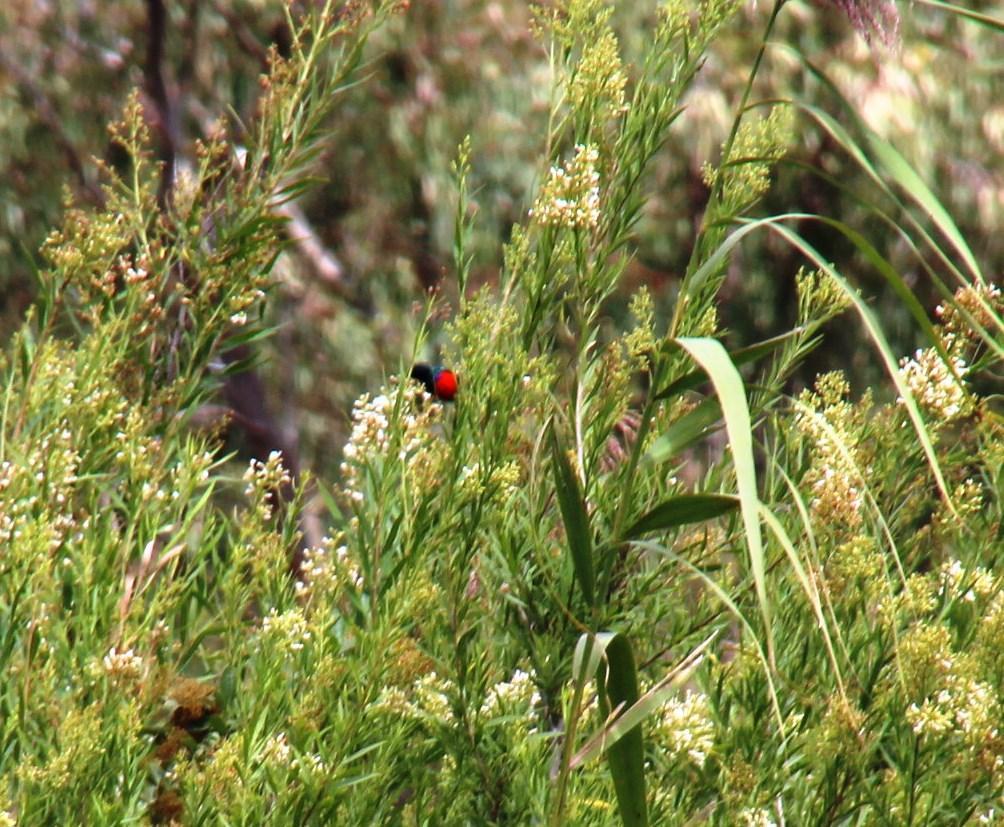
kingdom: Animalia
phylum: Chordata
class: Aves
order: Passeriformes
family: Nectariniidae
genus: Cinnyris
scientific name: Cinnyris afer
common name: Greater double-collared sunbird
